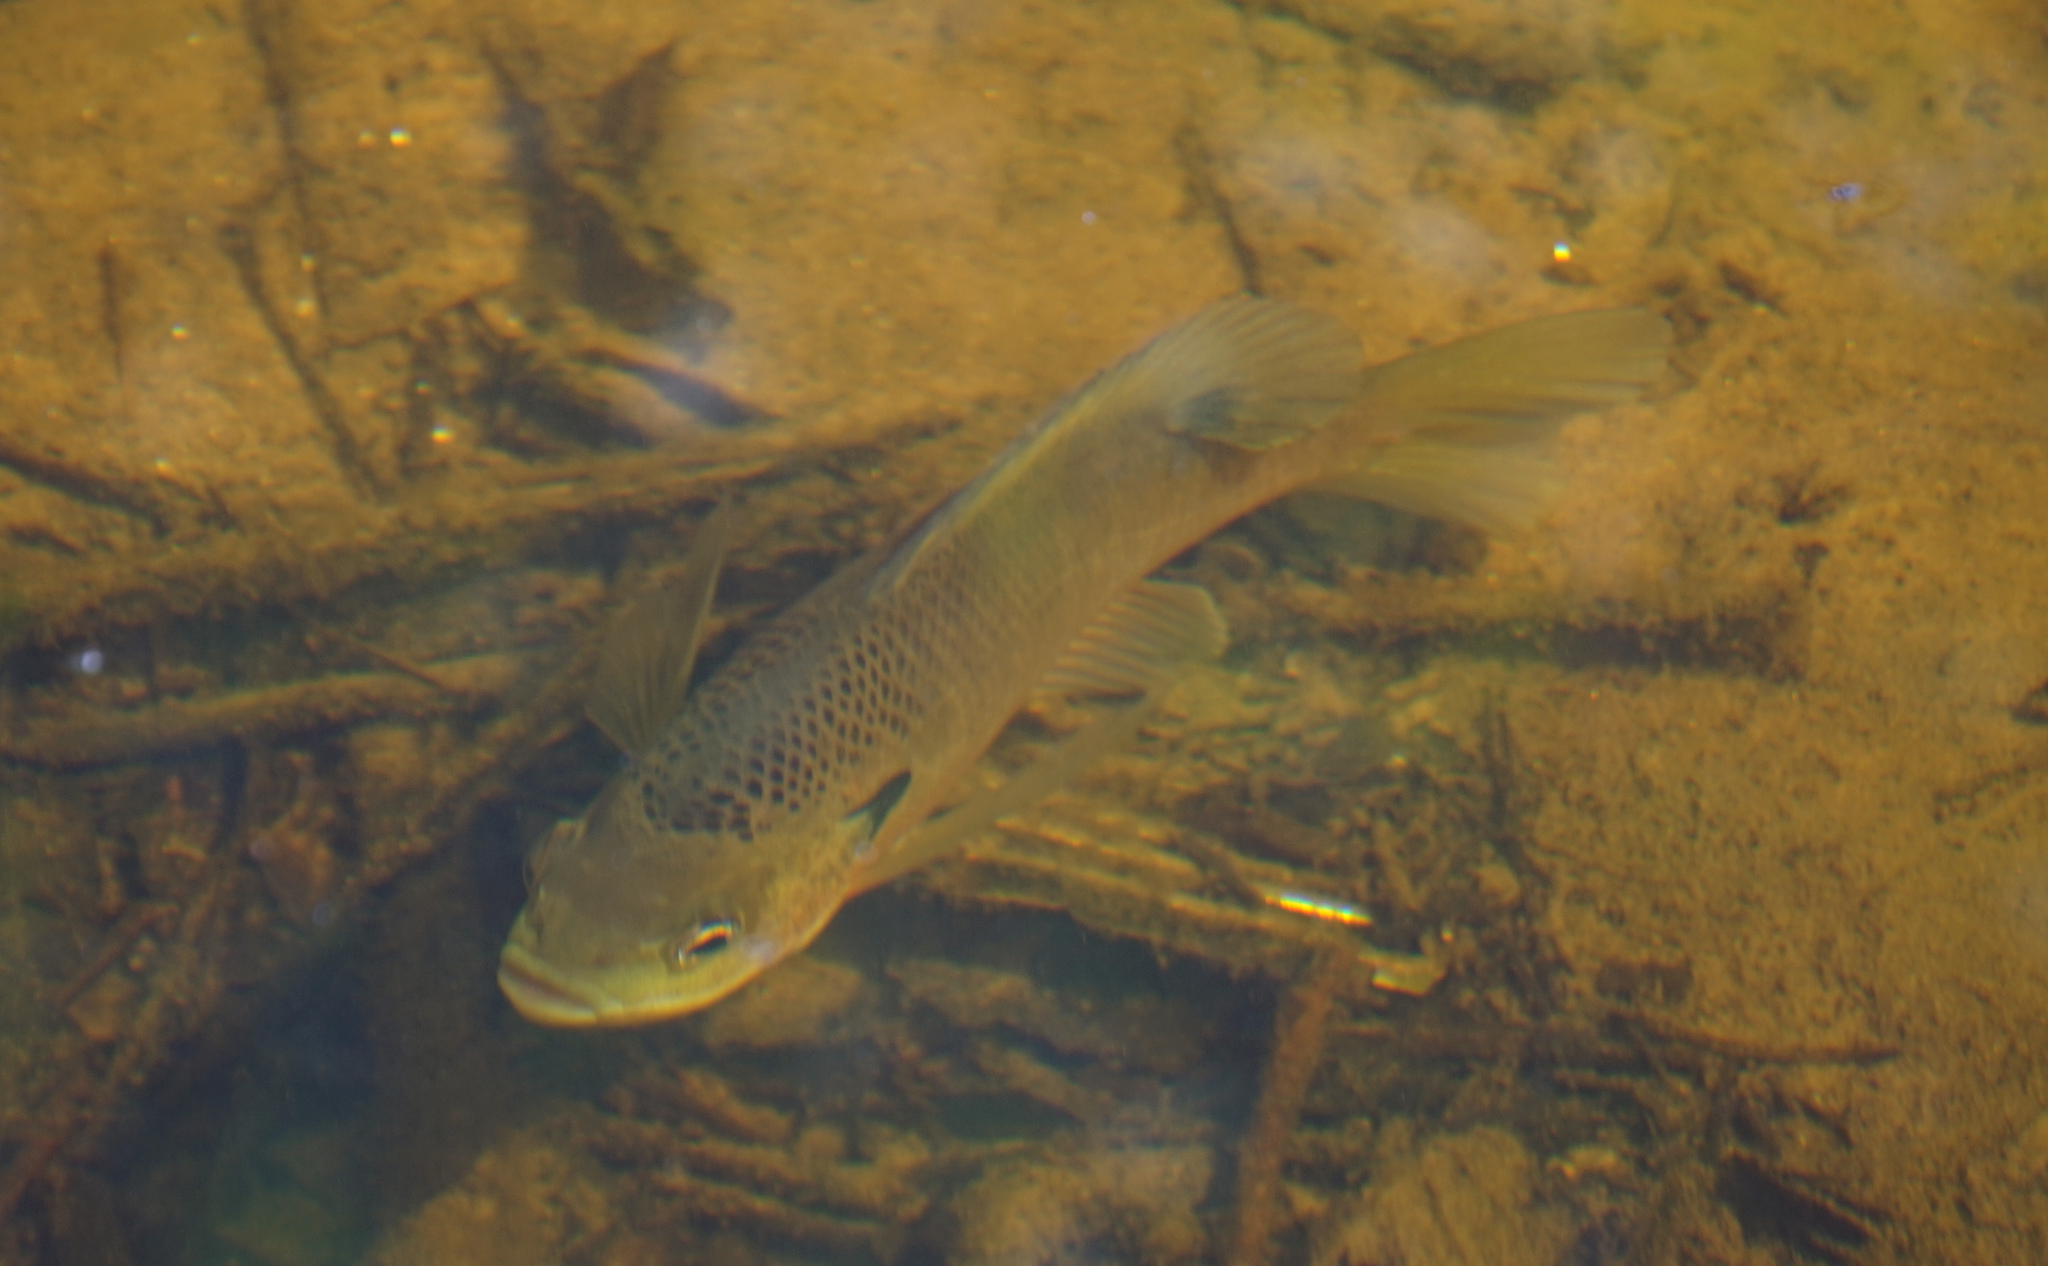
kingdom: Animalia
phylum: Chordata
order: Perciformes
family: Centrarchidae
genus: Lepomis
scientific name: Lepomis macrochirus
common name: Bluegill
